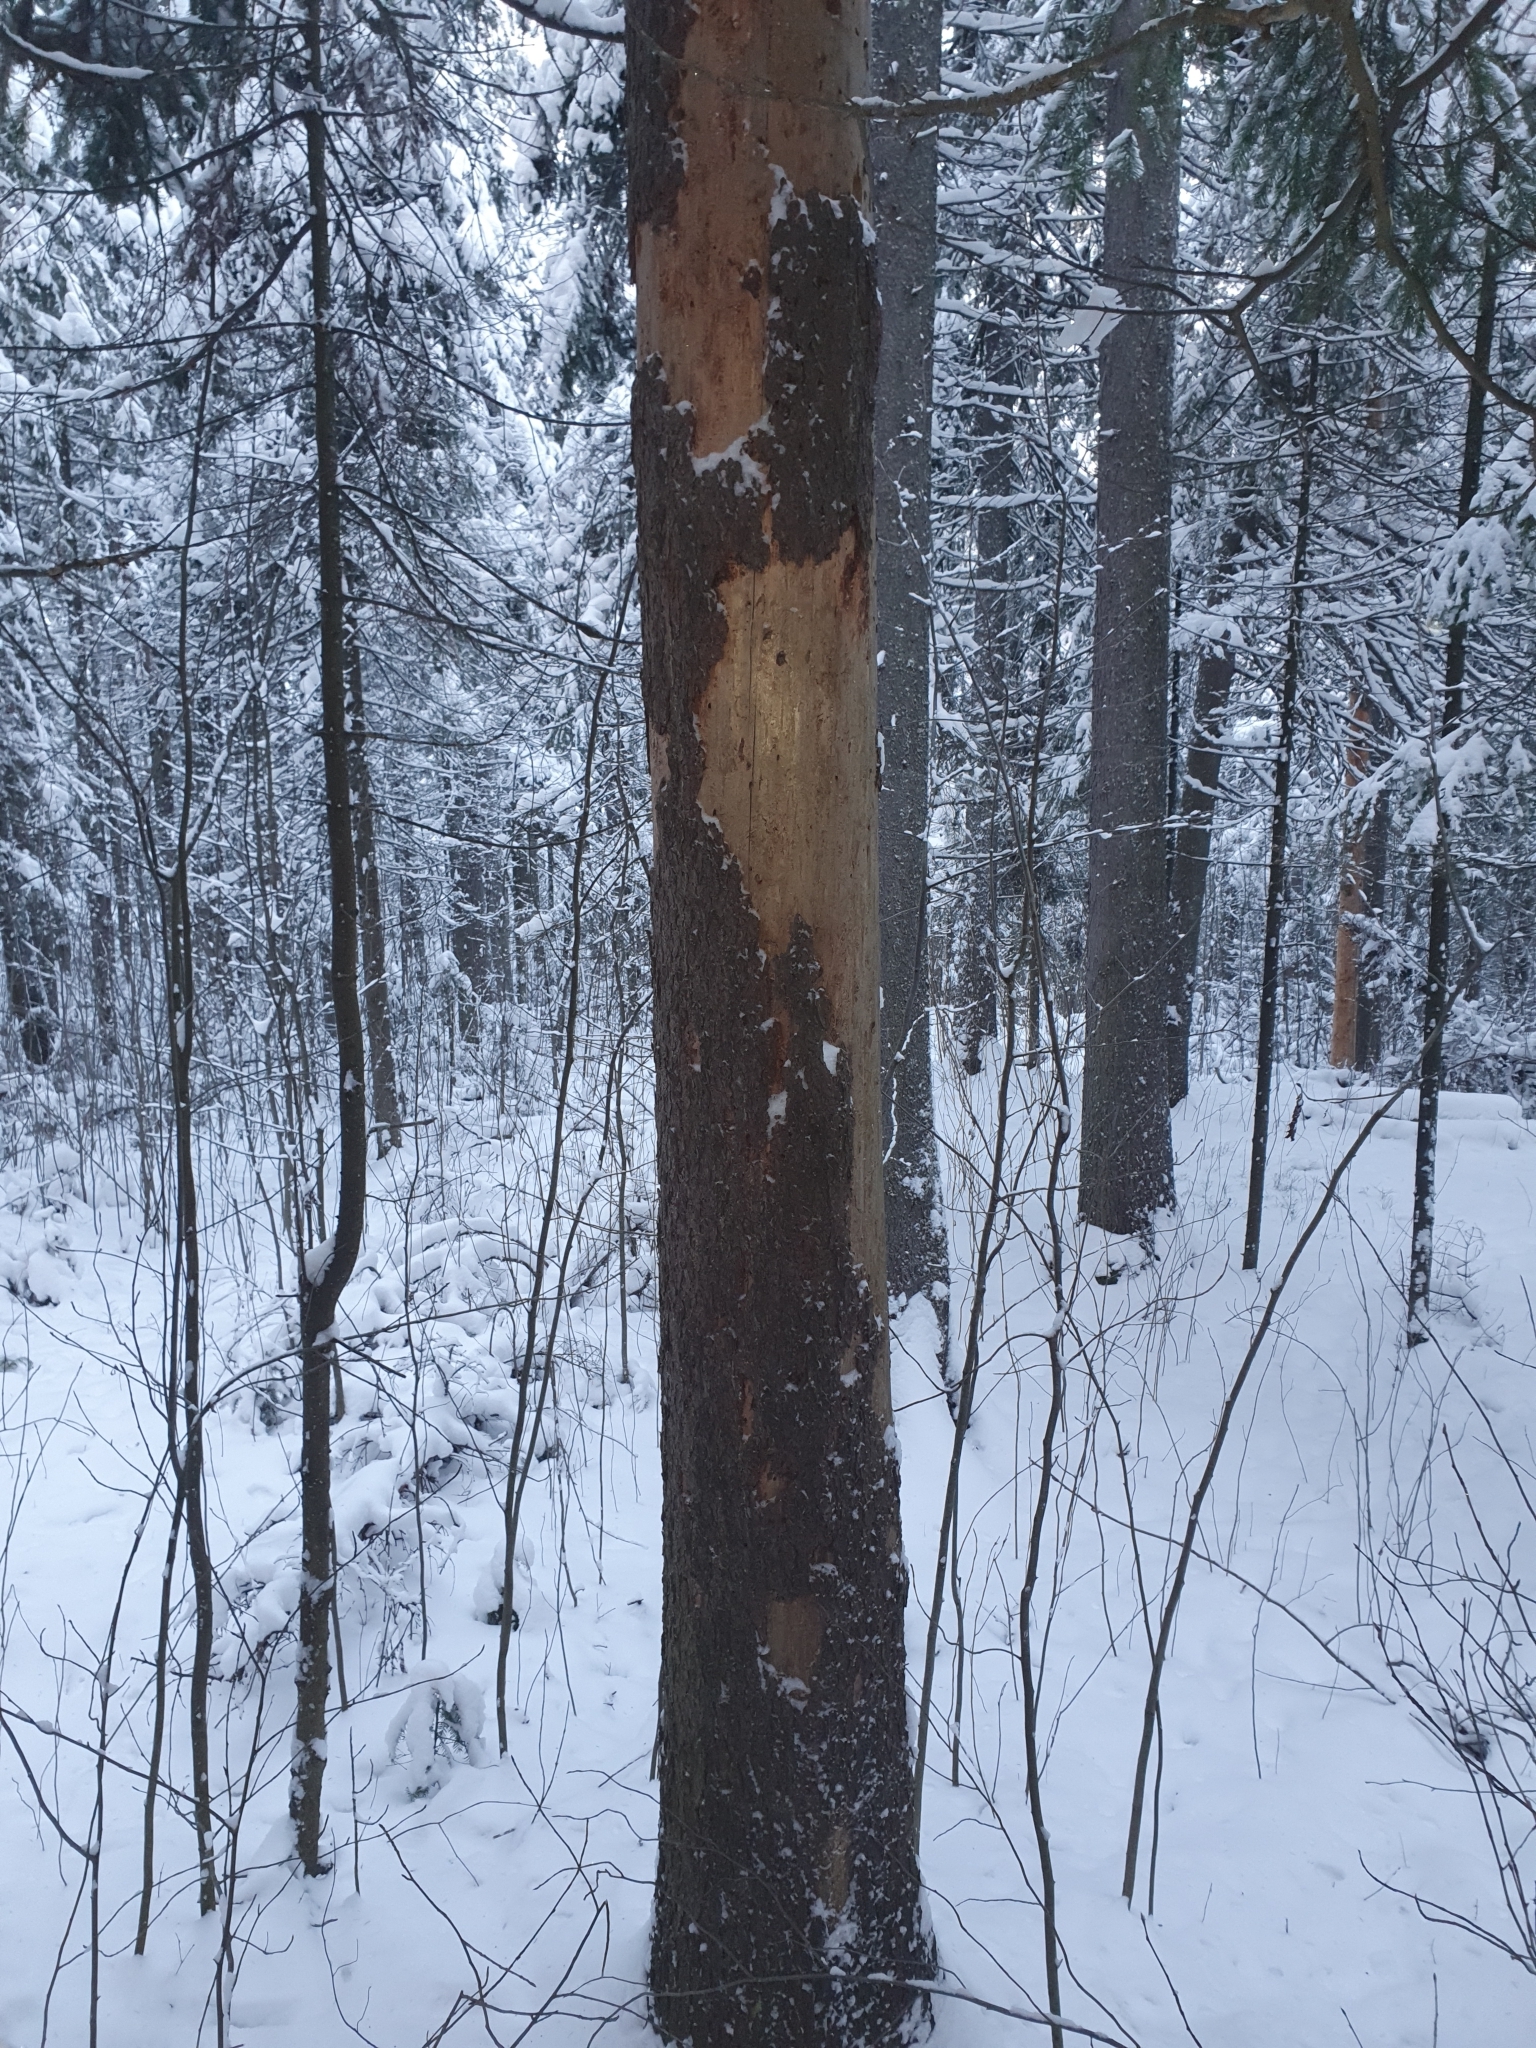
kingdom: Plantae
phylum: Tracheophyta
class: Pinopsida
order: Pinales
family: Pinaceae
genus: Picea
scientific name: Picea obovata
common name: Siberian spruce
